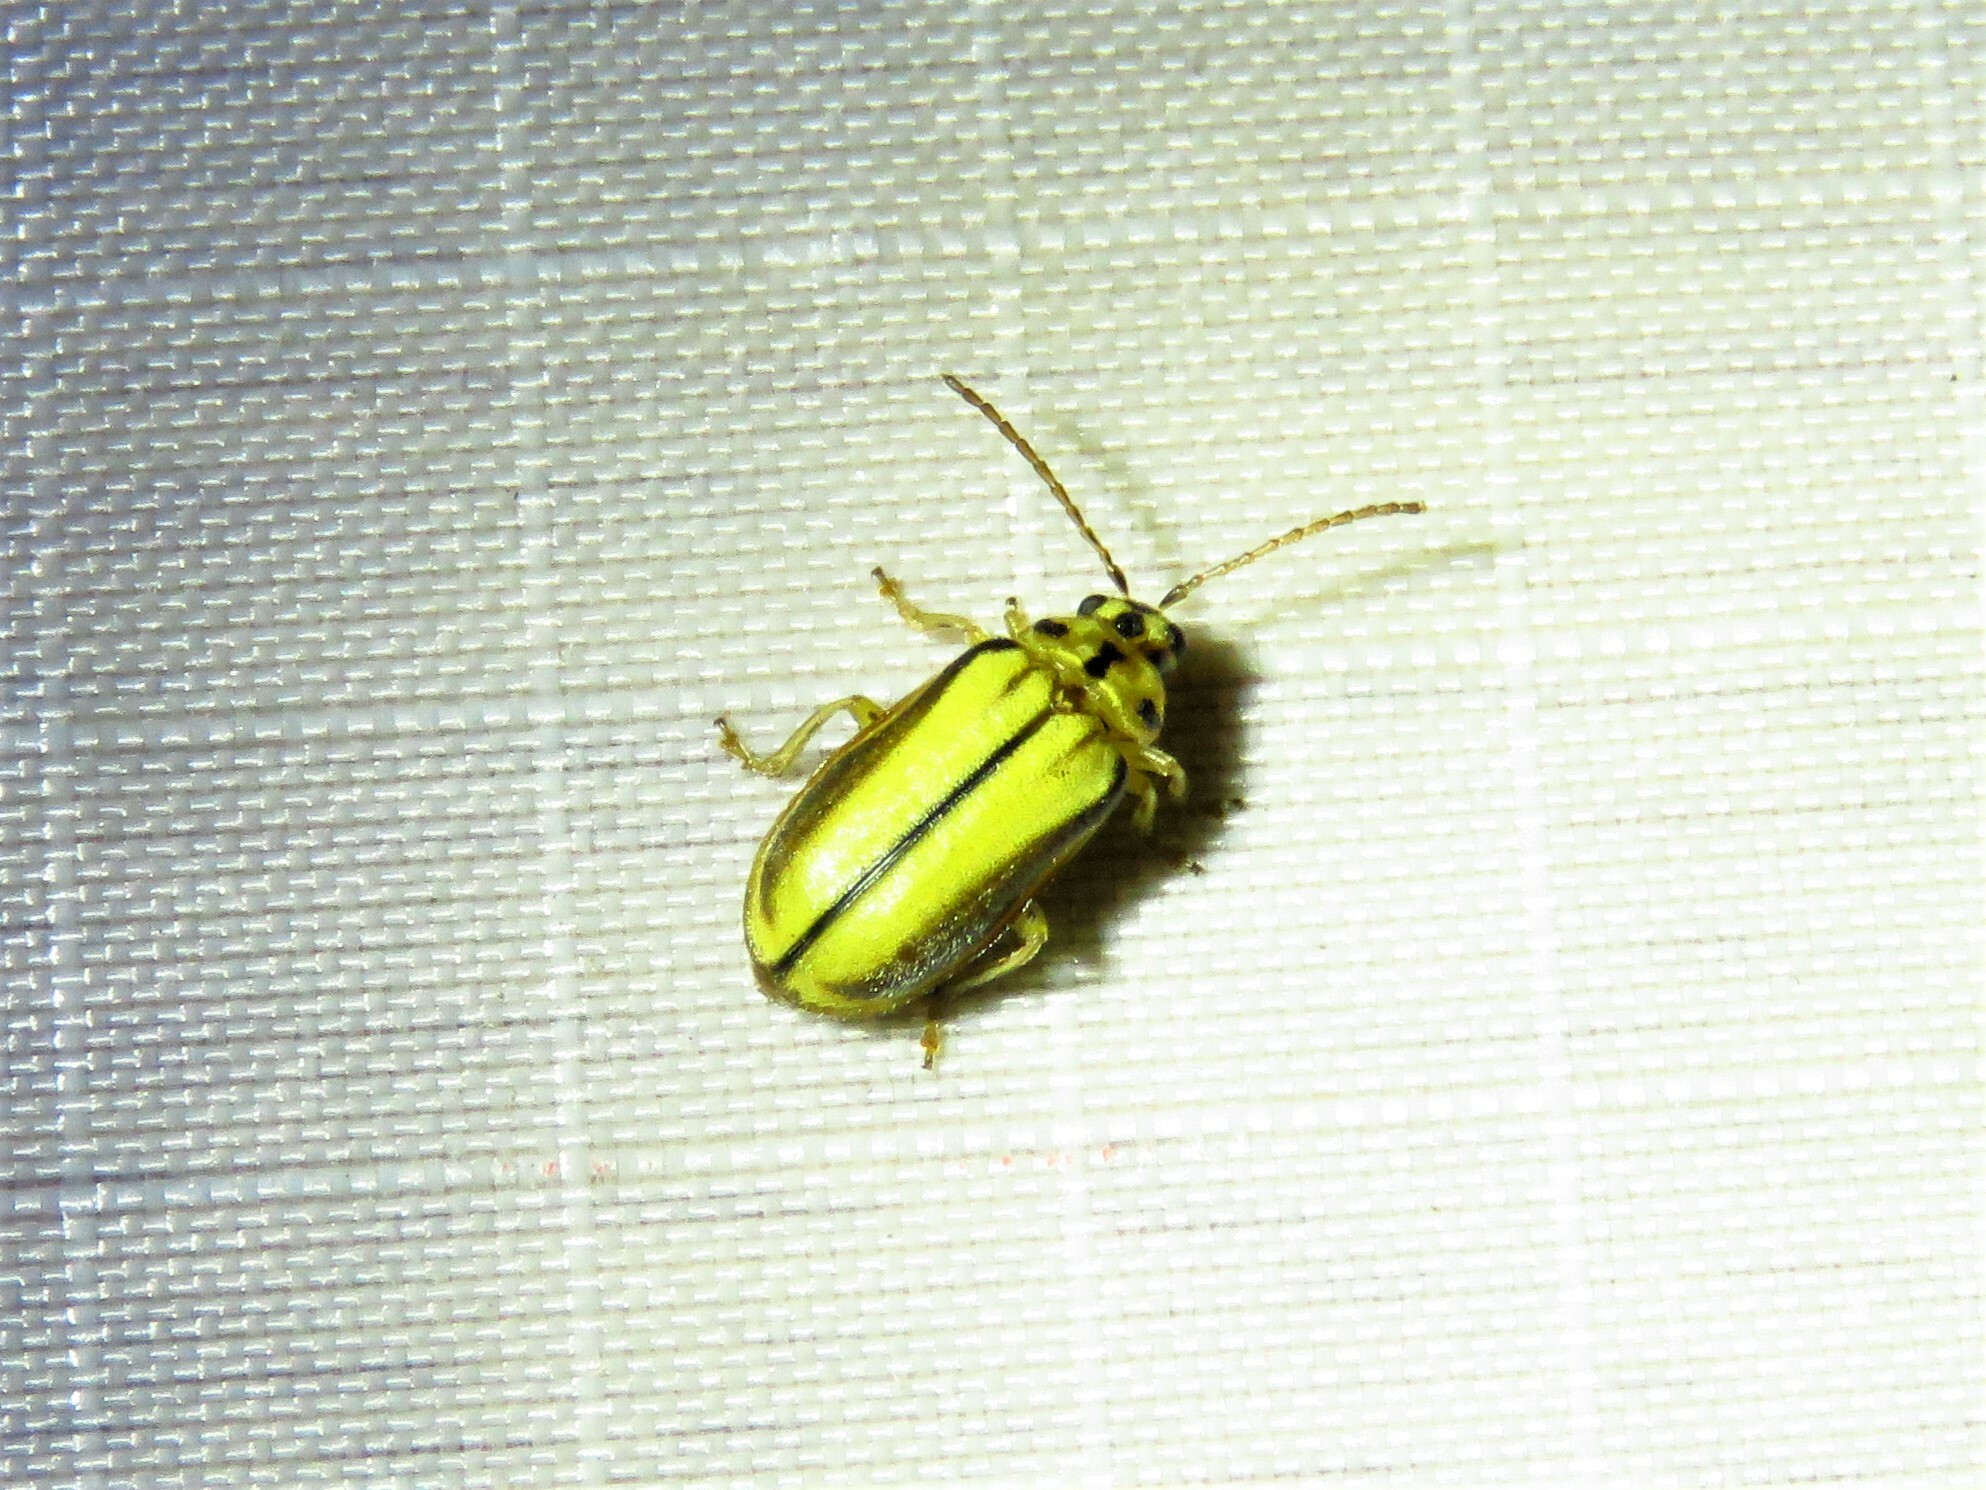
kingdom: Animalia
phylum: Arthropoda
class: Insecta
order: Coleoptera
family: Chrysomelidae
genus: Xanthogaleruca
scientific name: Xanthogaleruca luteola
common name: Elm leaf beetle
